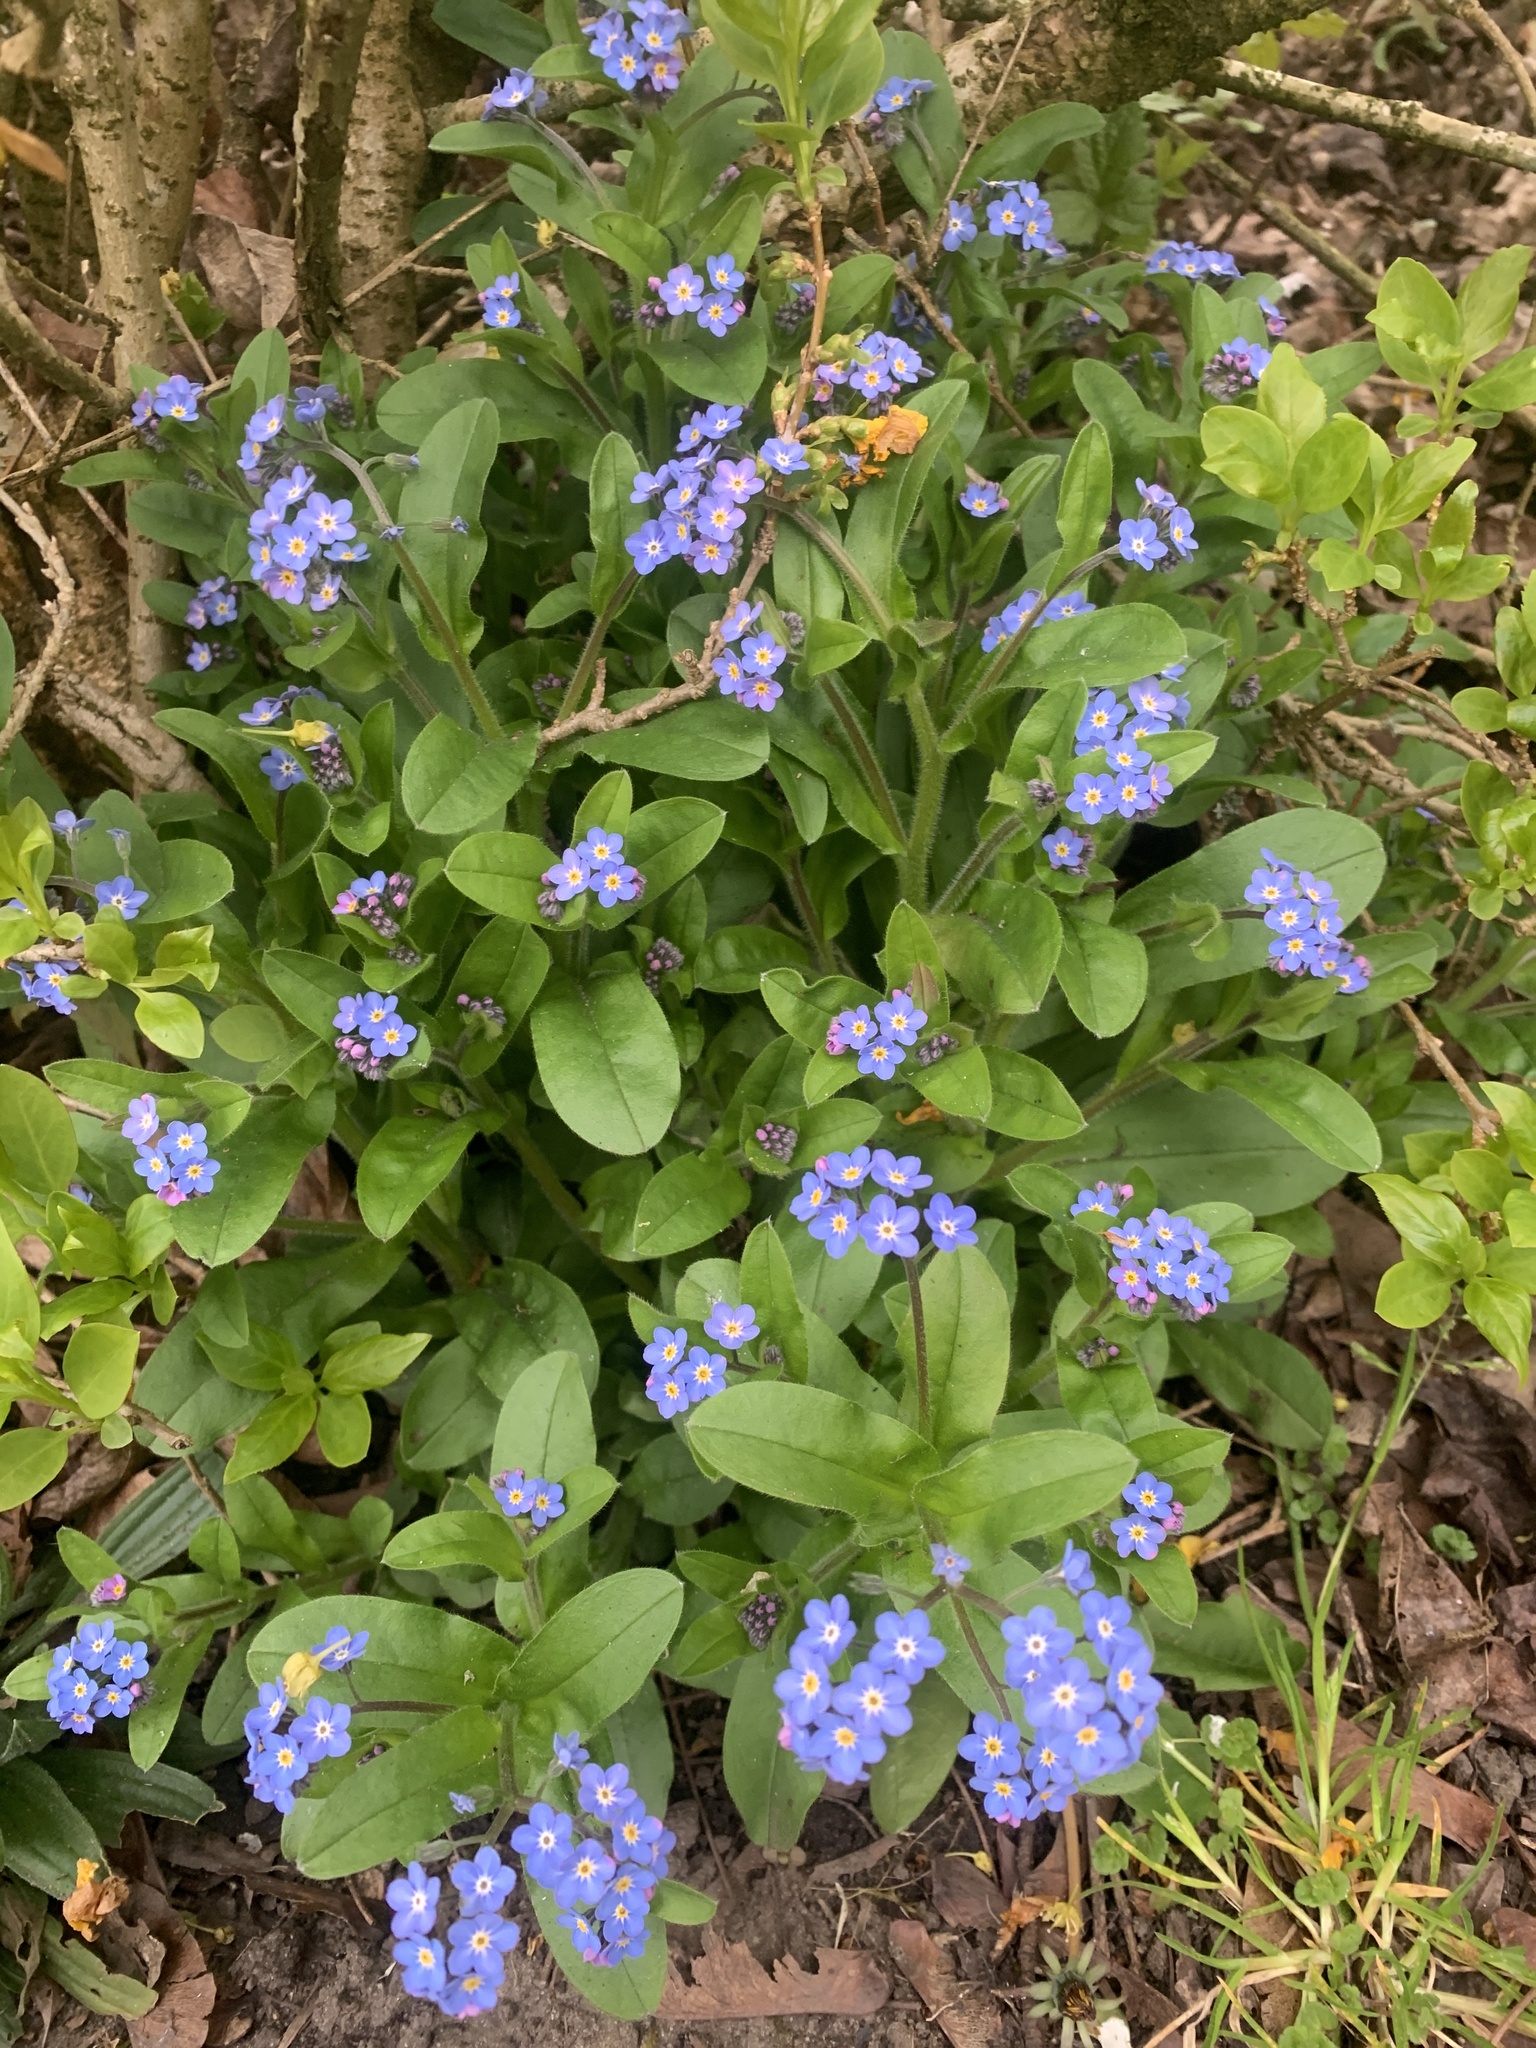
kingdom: Plantae
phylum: Tracheophyta
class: Magnoliopsida
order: Boraginales
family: Boraginaceae
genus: Myosotis
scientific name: Myosotis sylvatica
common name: Wood forget-me-not
